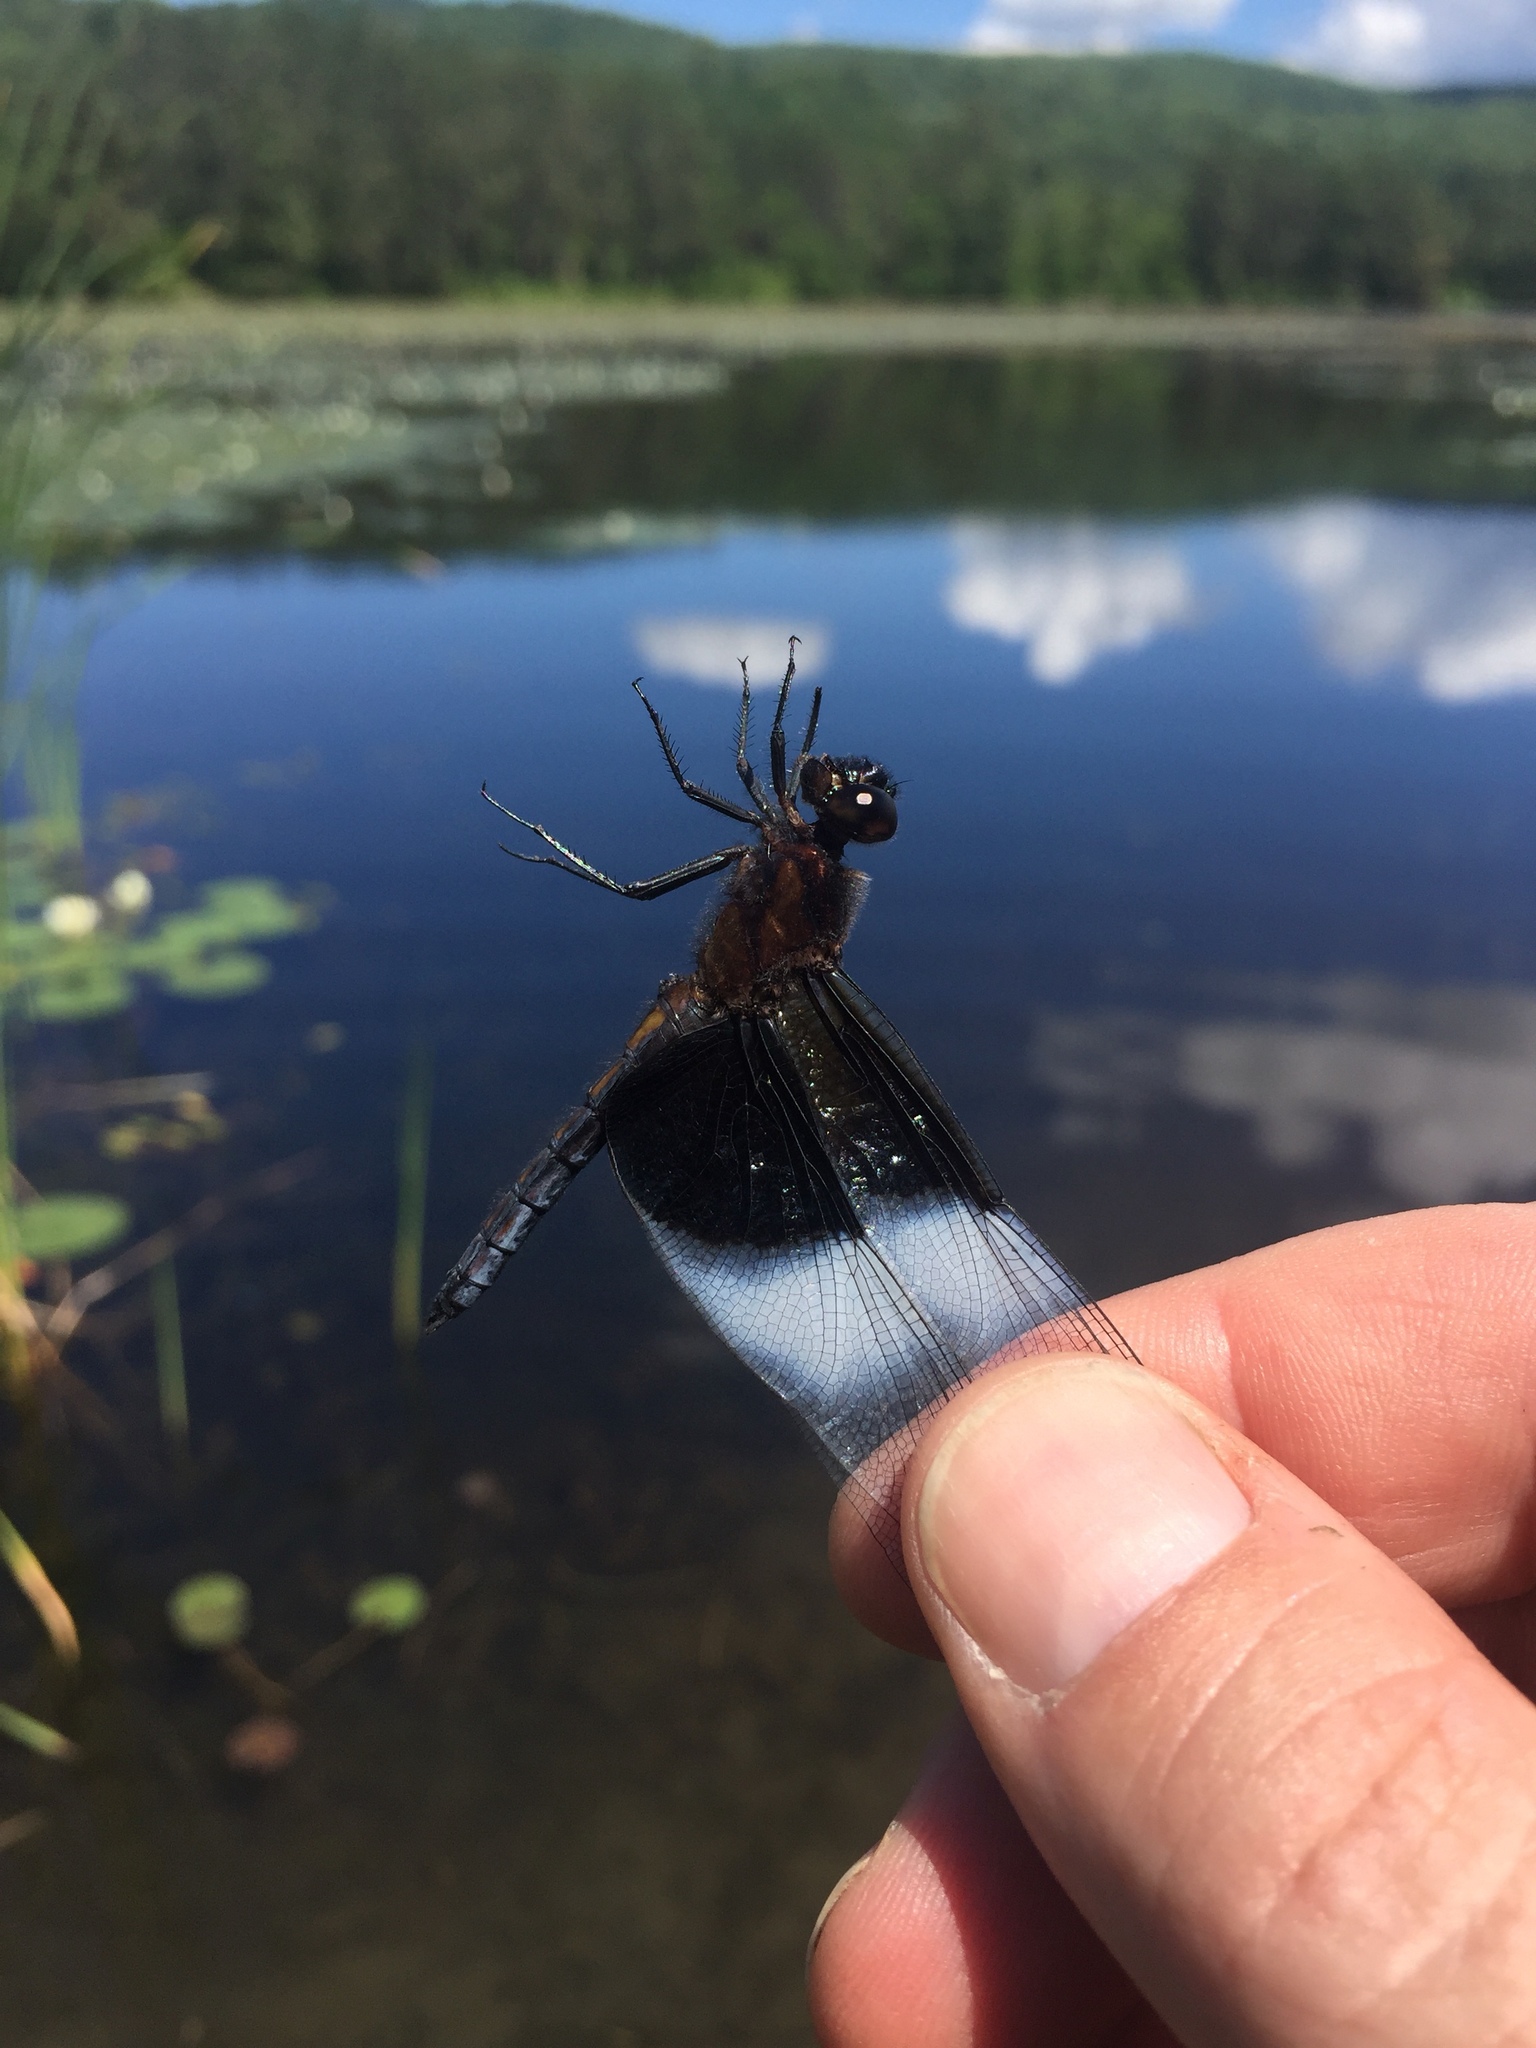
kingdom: Animalia
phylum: Arthropoda
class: Insecta
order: Odonata
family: Libellulidae
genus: Libellula
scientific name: Libellula luctuosa
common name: Widow skimmer
